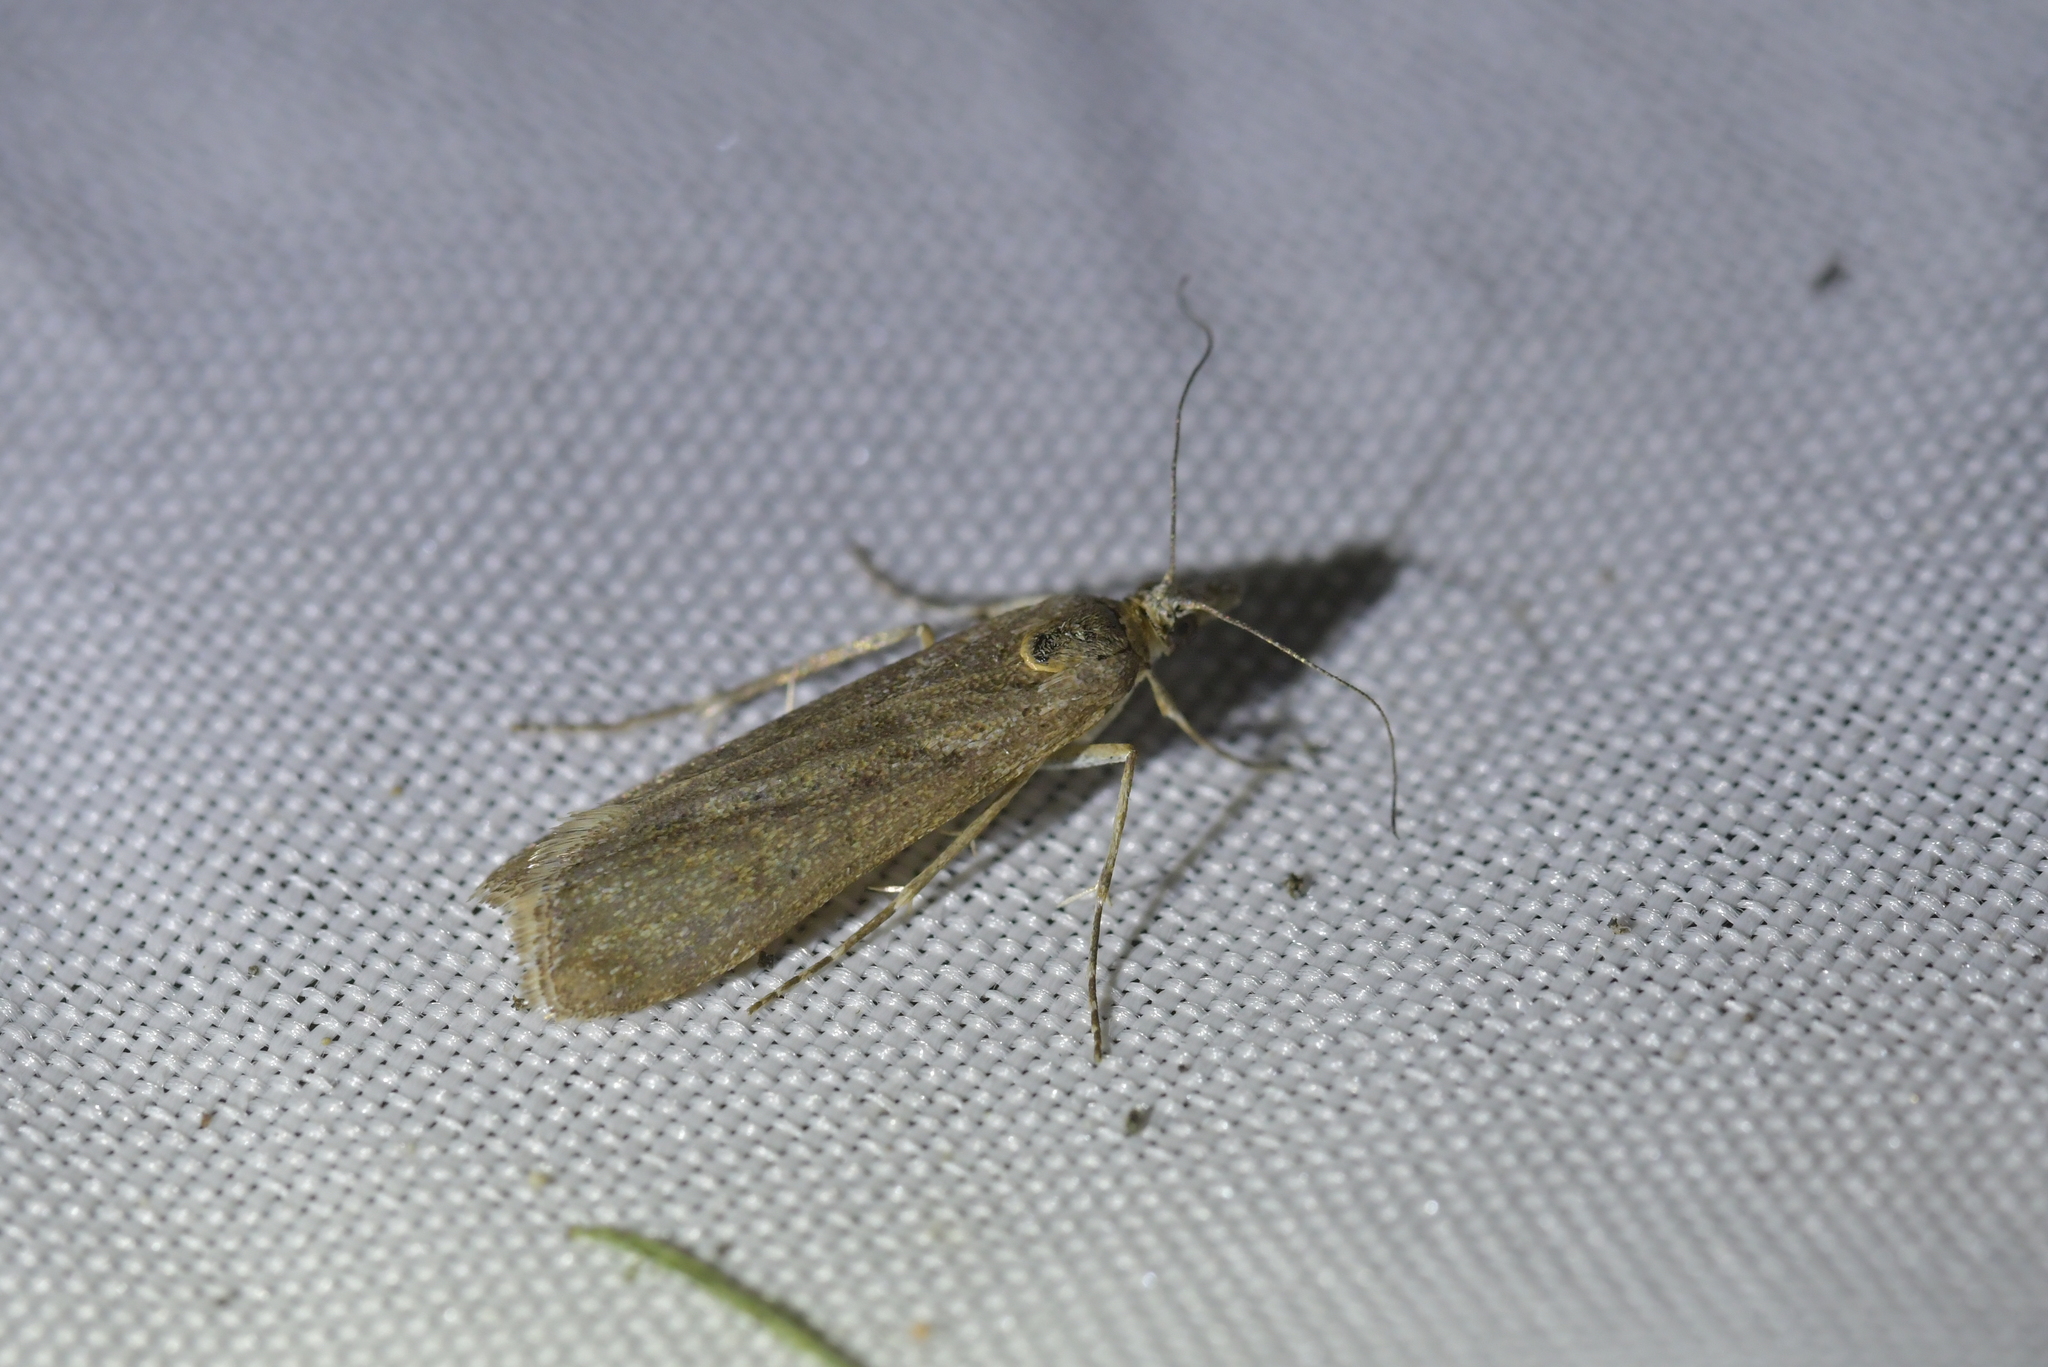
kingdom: Animalia
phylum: Arthropoda
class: Insecta
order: Lepidoptera
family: Crambidae
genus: Eudonia
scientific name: Eudonia leptalea
